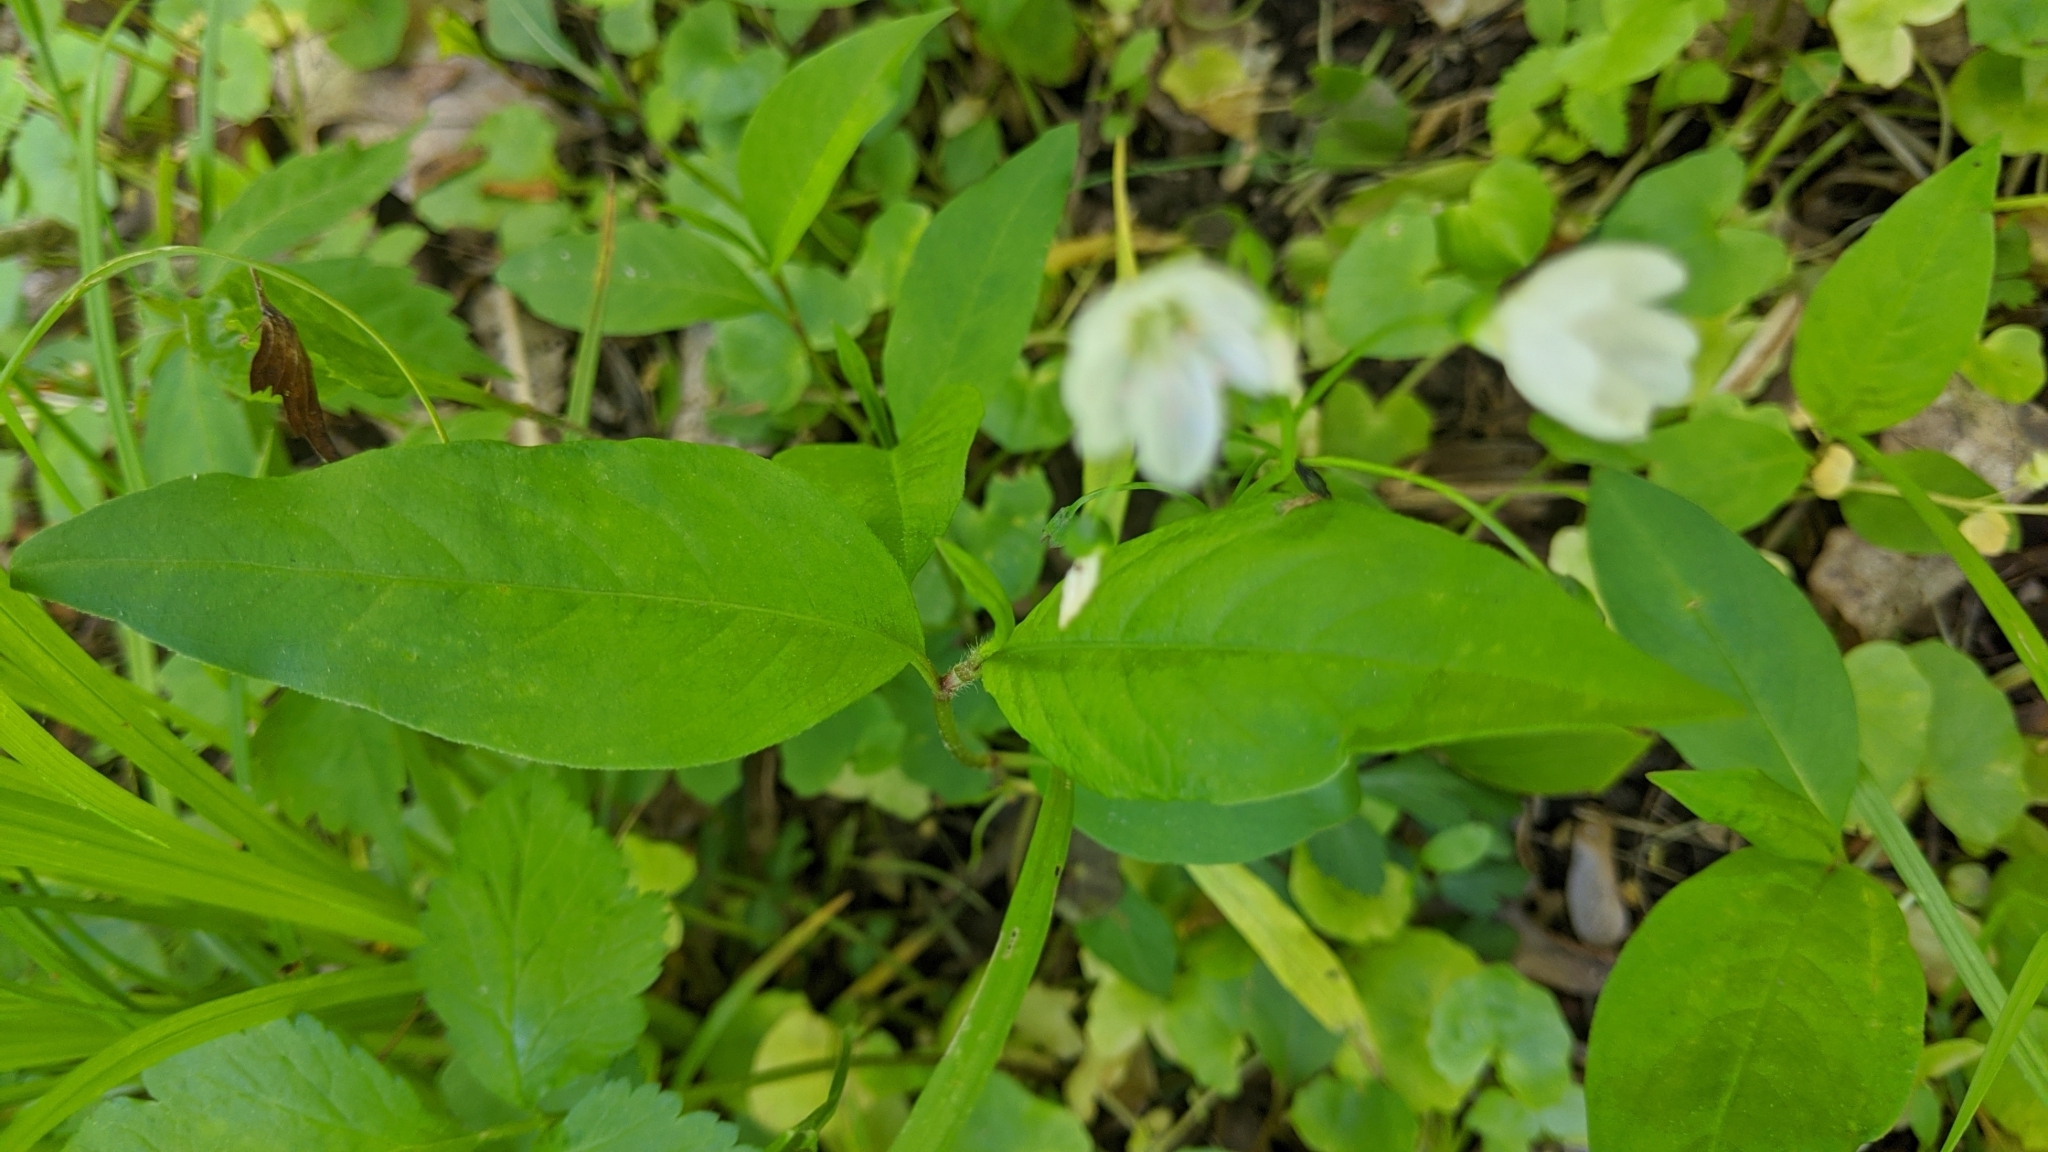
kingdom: Plantae
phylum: Tracheophyta
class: Magnoliopsida
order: Caryophyllales
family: Montiaceae
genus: Claytonia
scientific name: Claytonia virginica
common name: Virginia springbeauty
